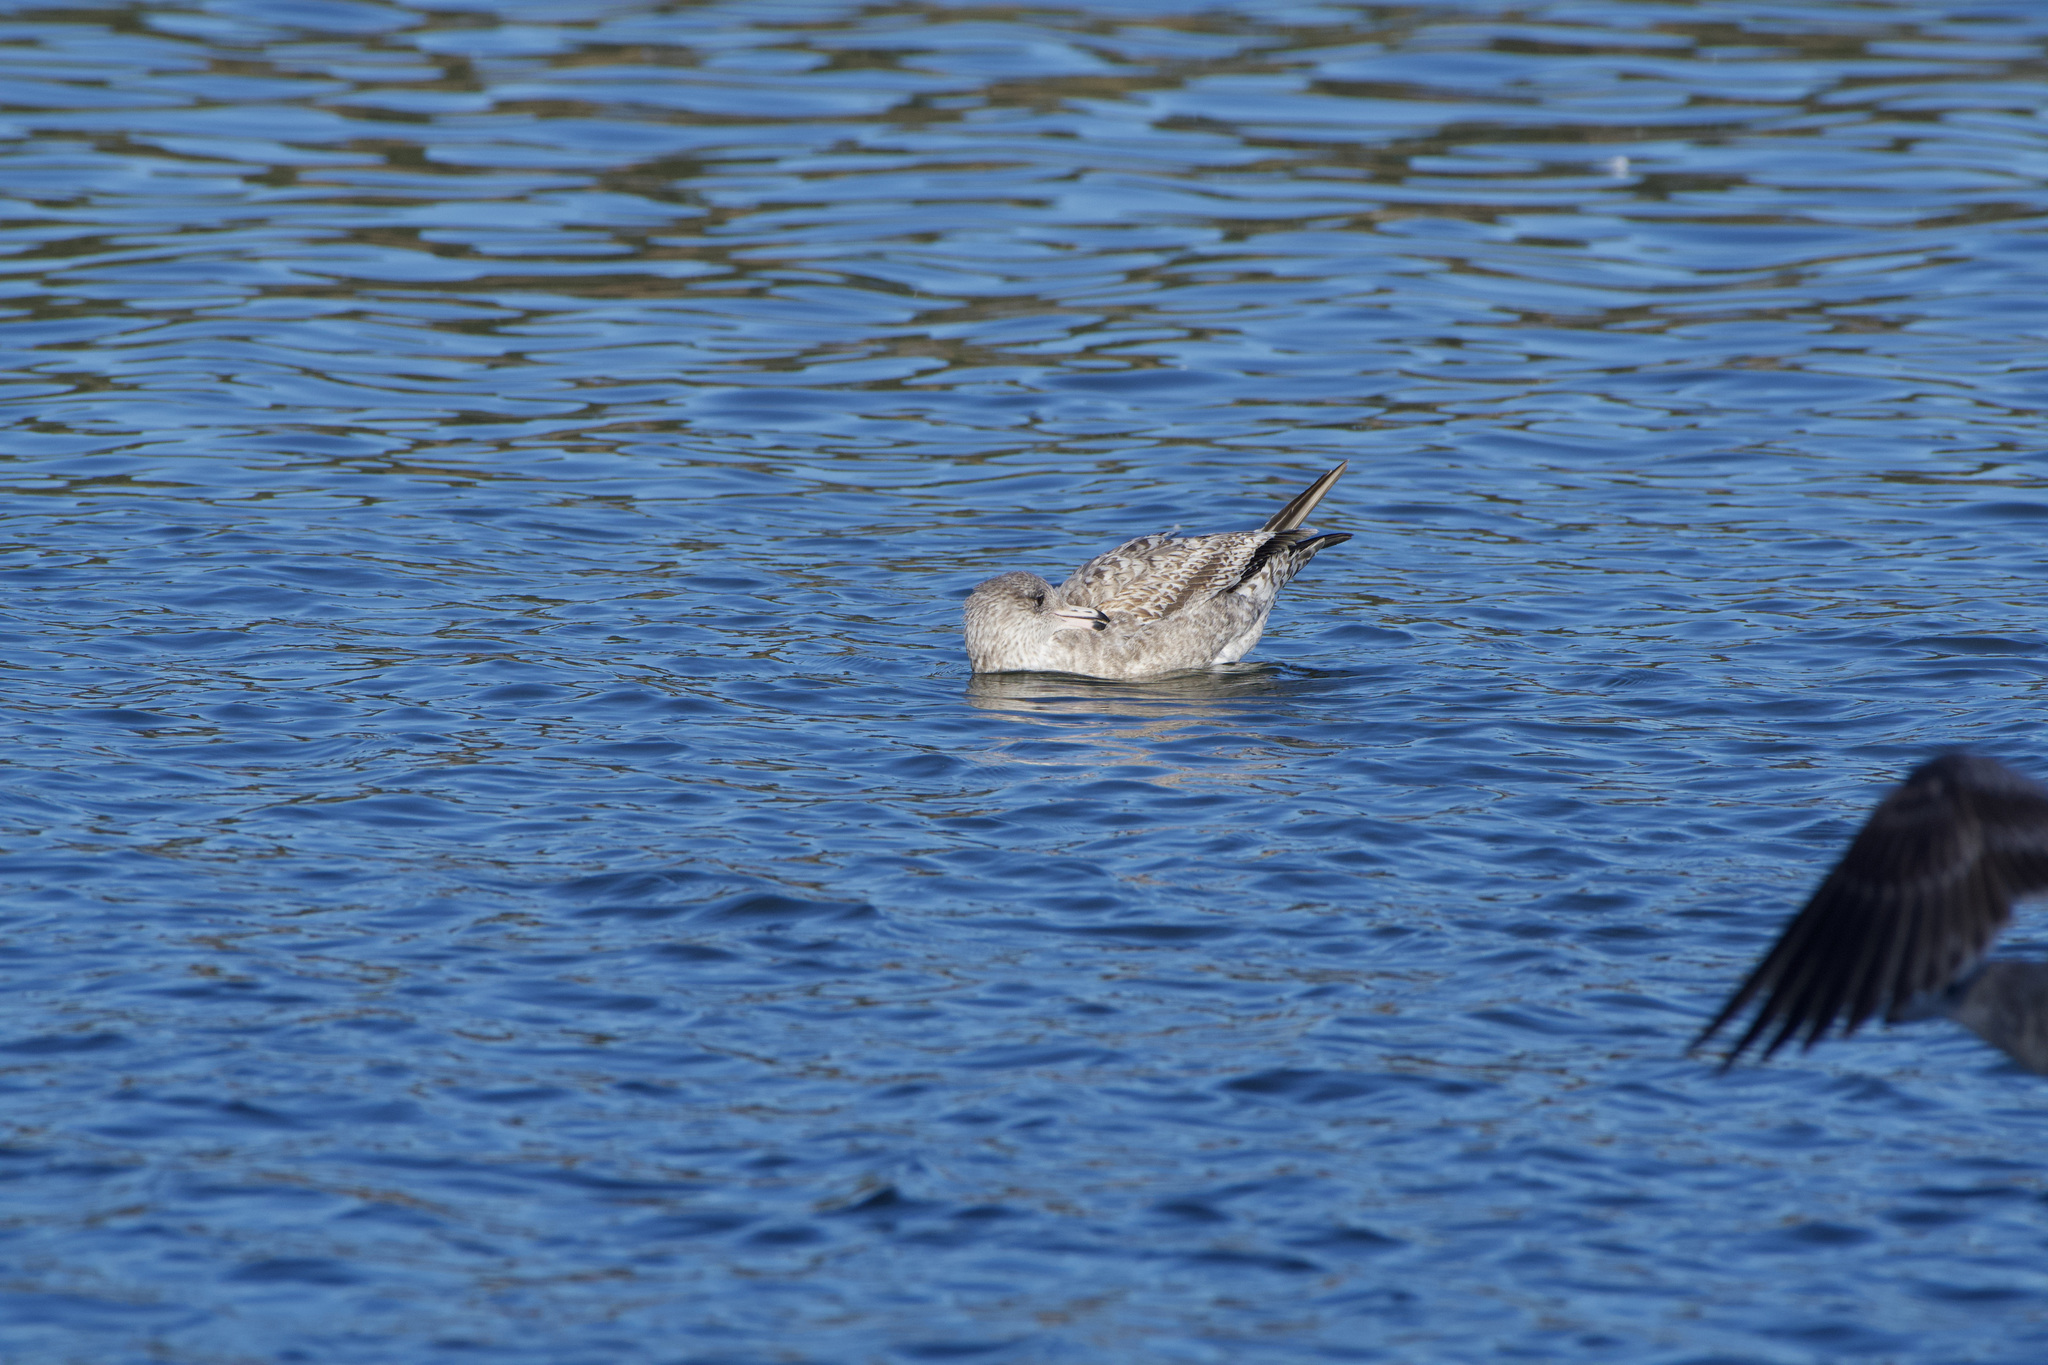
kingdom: Animalia
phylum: Chordata
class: Aves
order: Charadriiformes
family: Laridae
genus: Larus
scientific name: Larus californicus
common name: California gull
